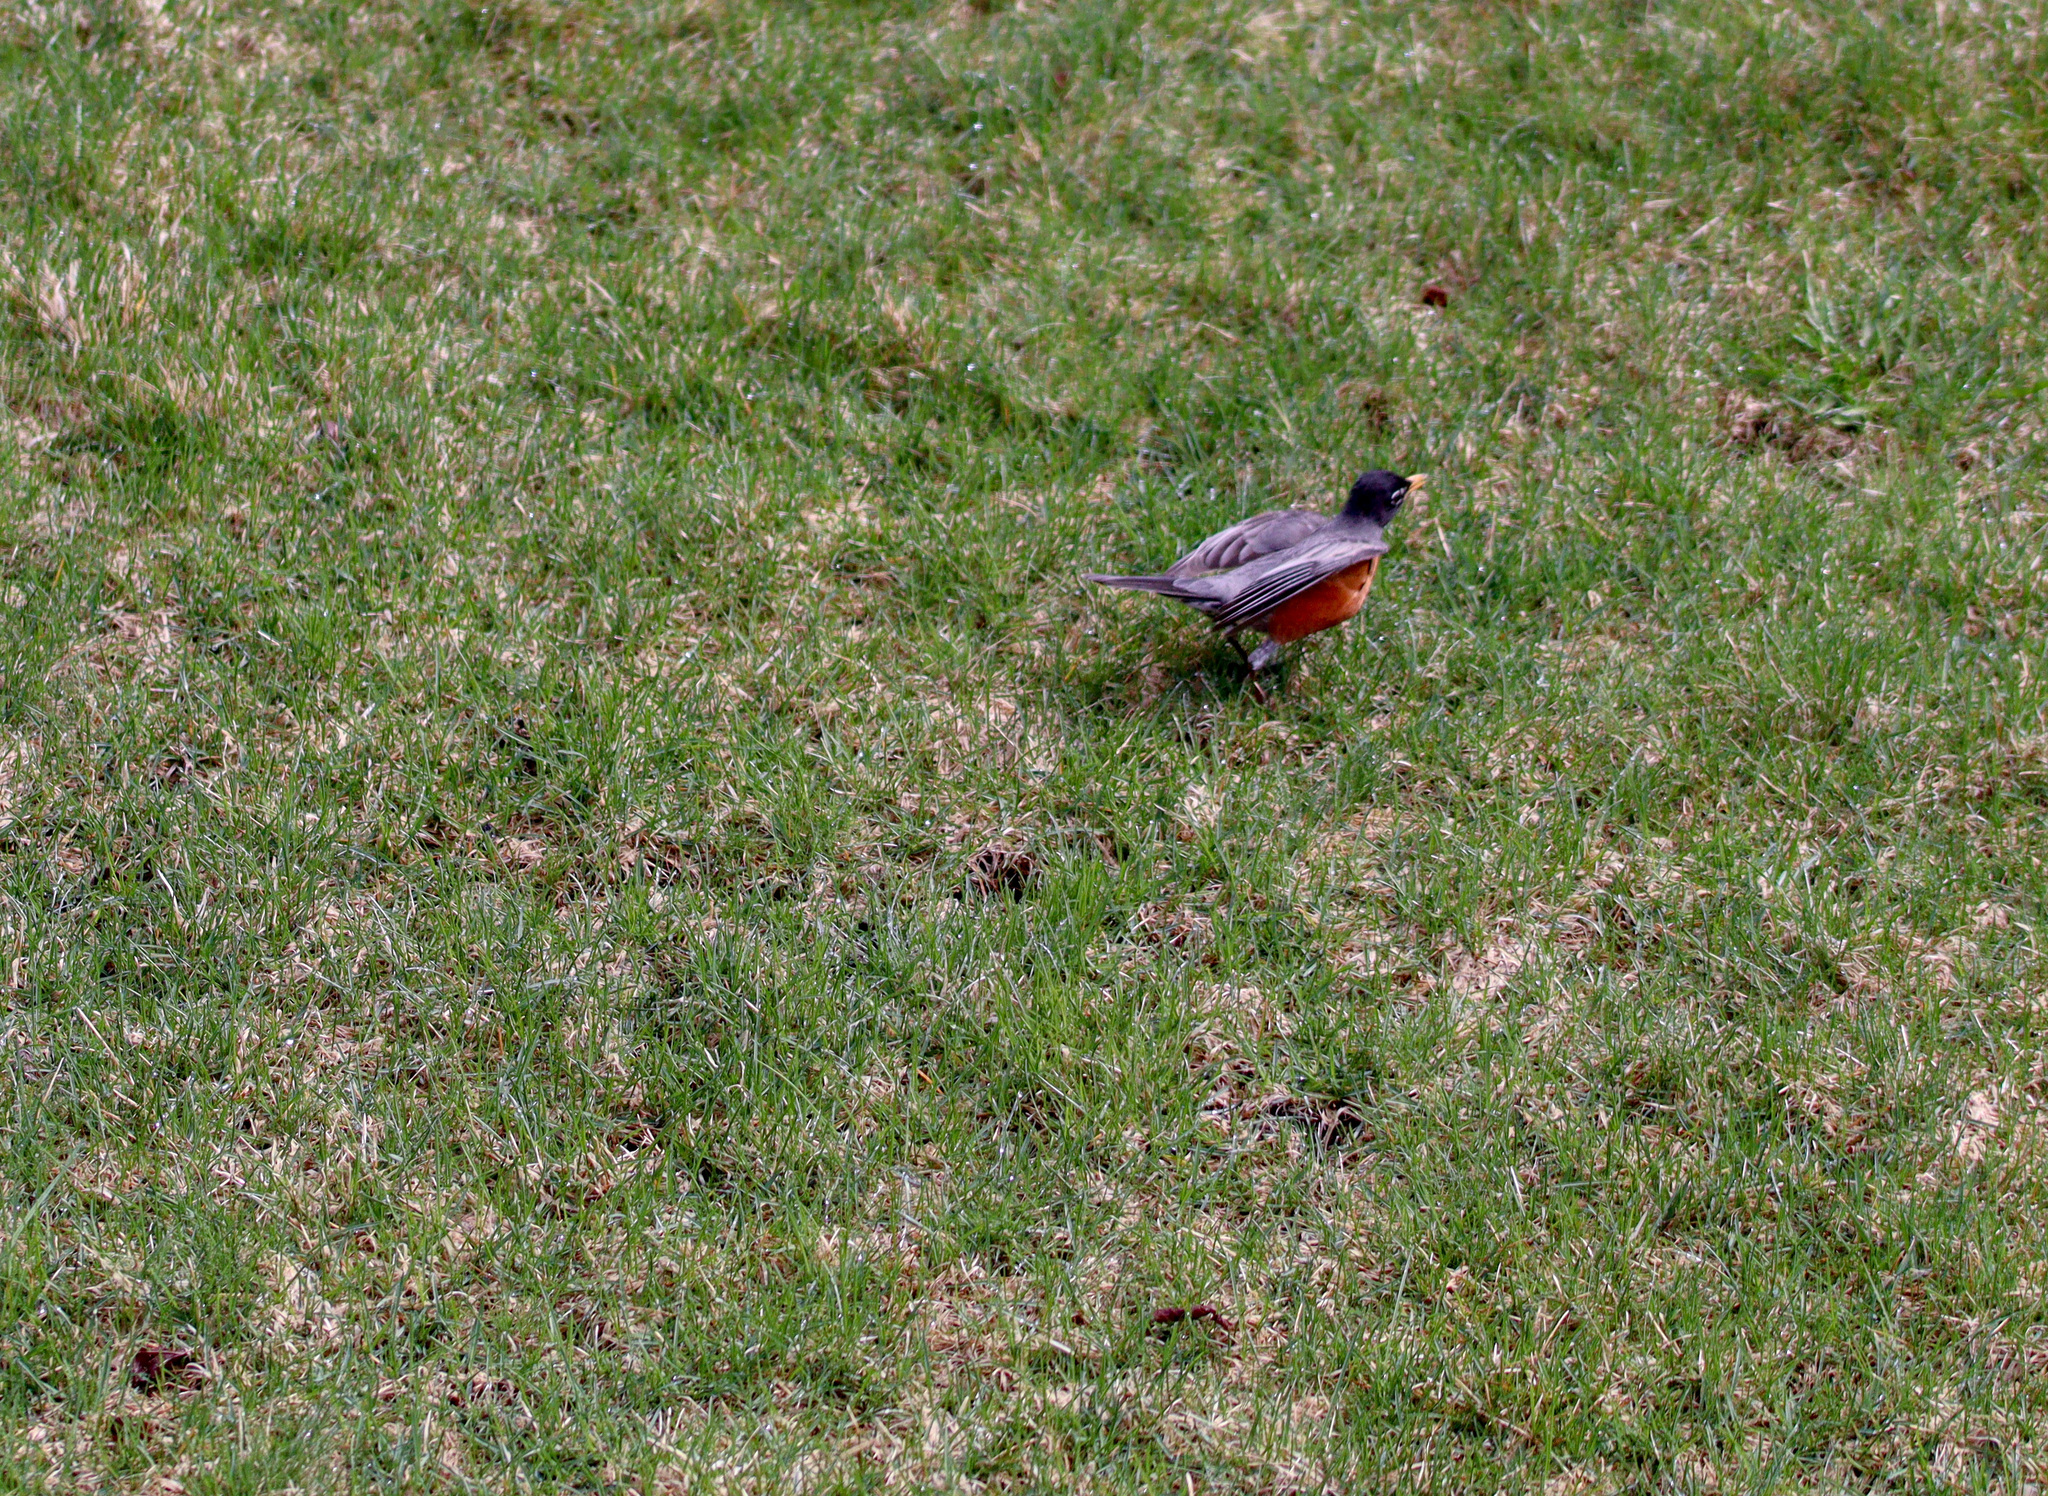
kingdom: Animalia
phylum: Chordata
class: Aves
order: Passeriformes
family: Turdidae
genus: Turdus
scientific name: Turdus migratorius
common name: American robin
